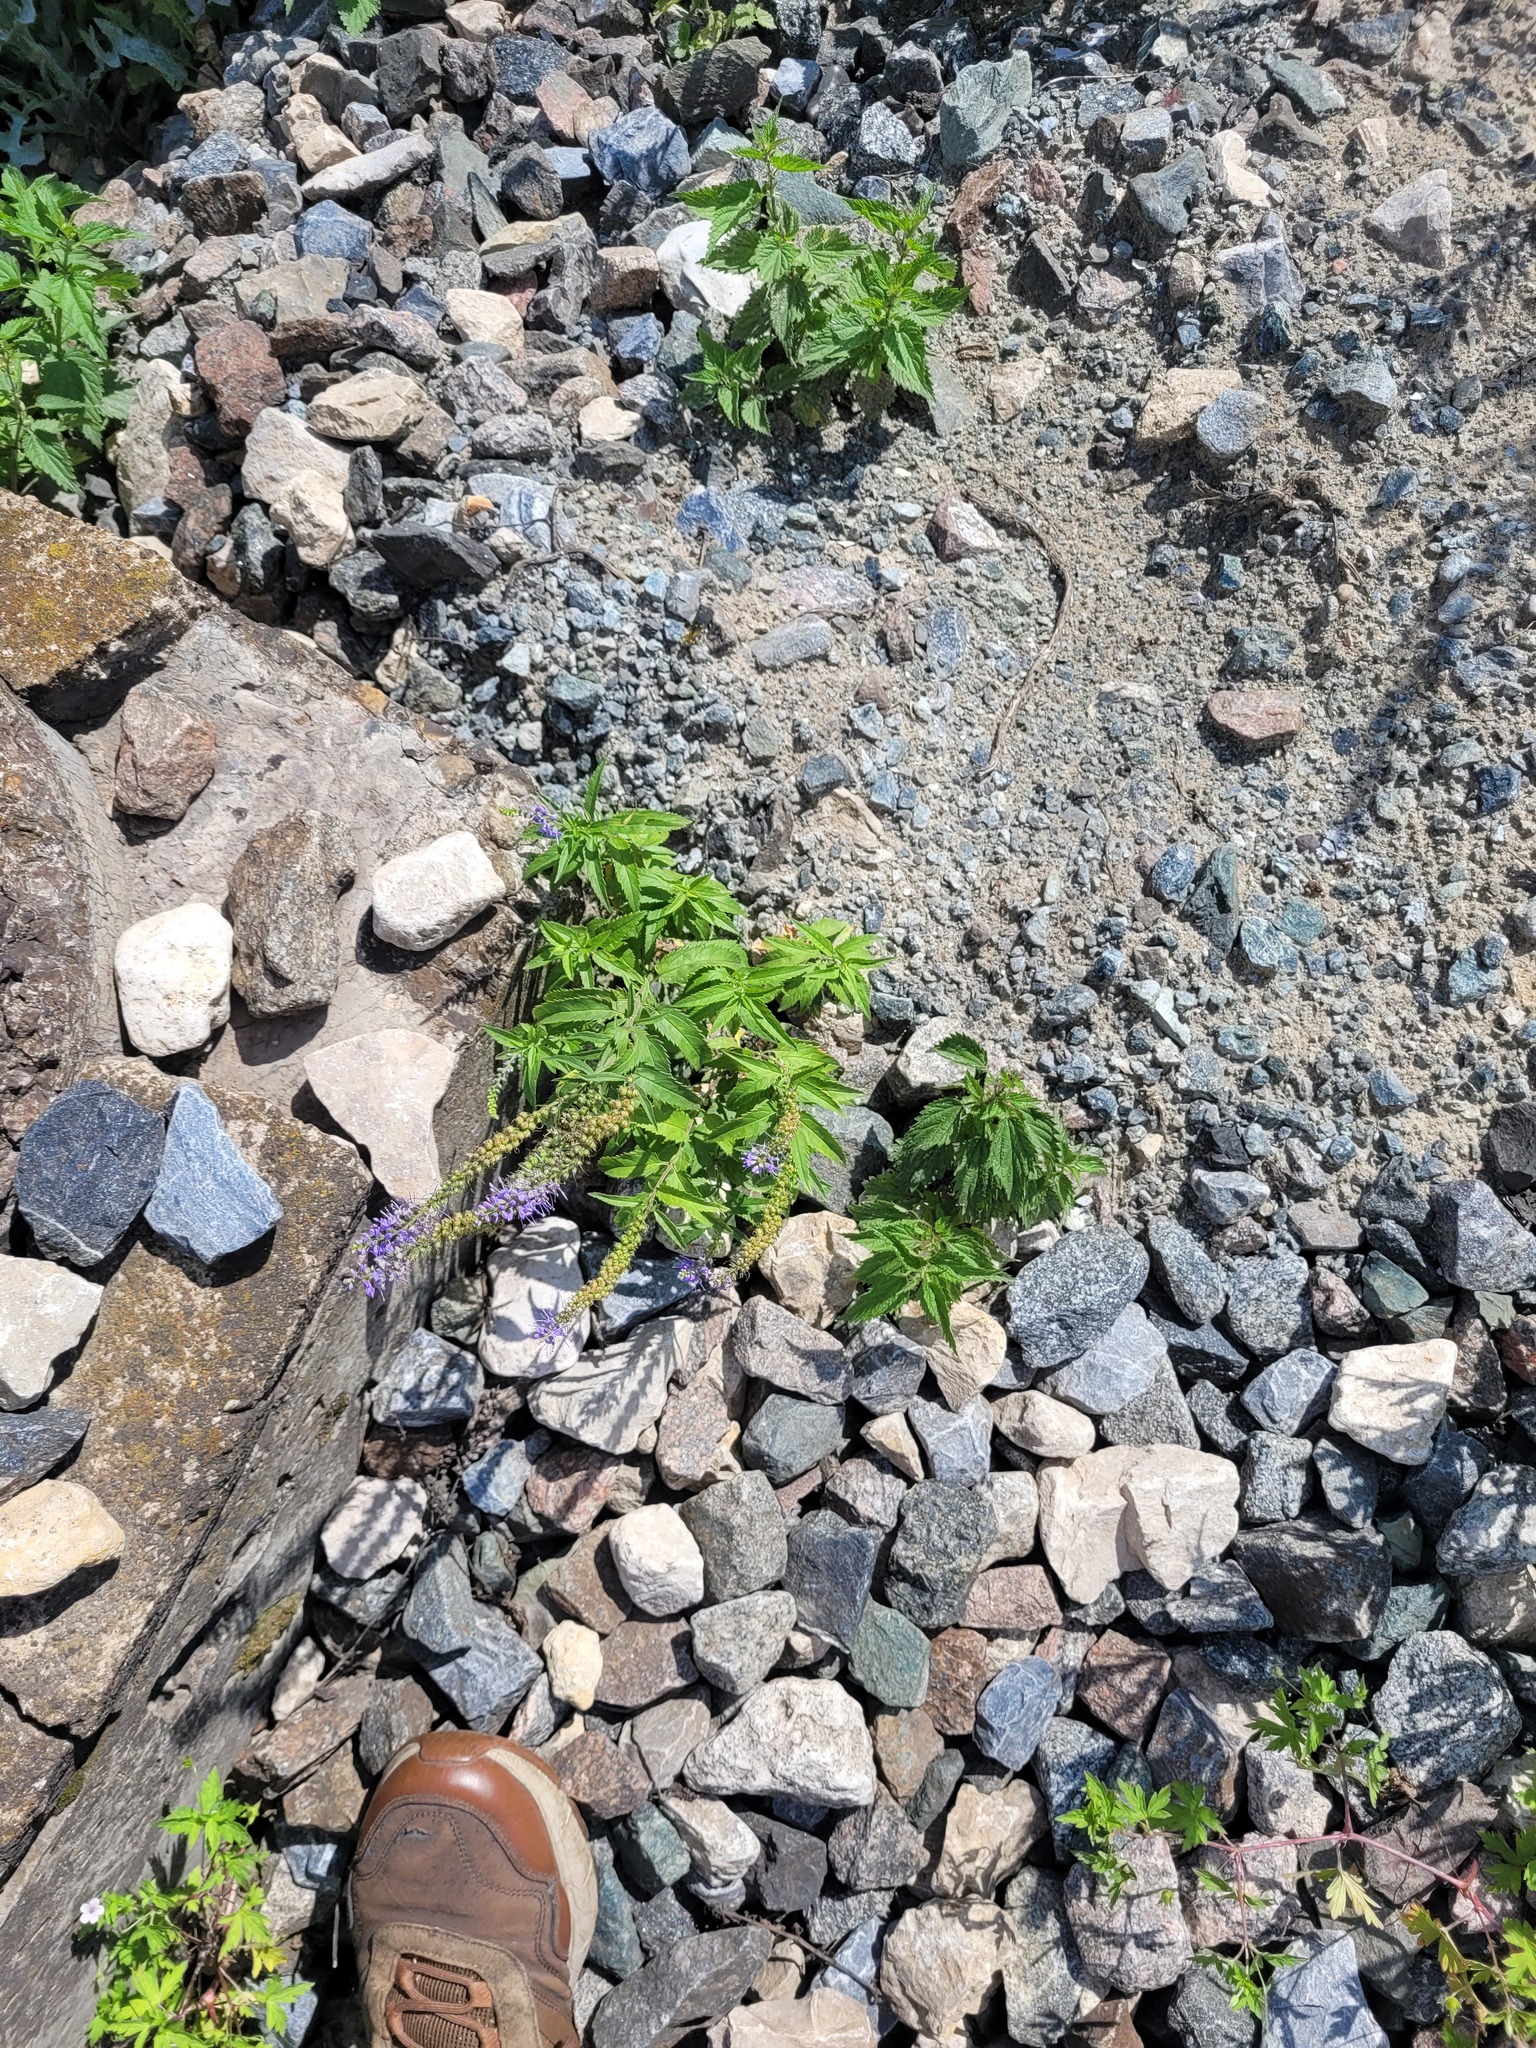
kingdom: Plantae
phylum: Tracheophyta
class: Magnoliopsida
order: Lamiales
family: Plantaginaceae
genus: Veronica
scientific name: Veronica longifolia
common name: Garden speedwell
